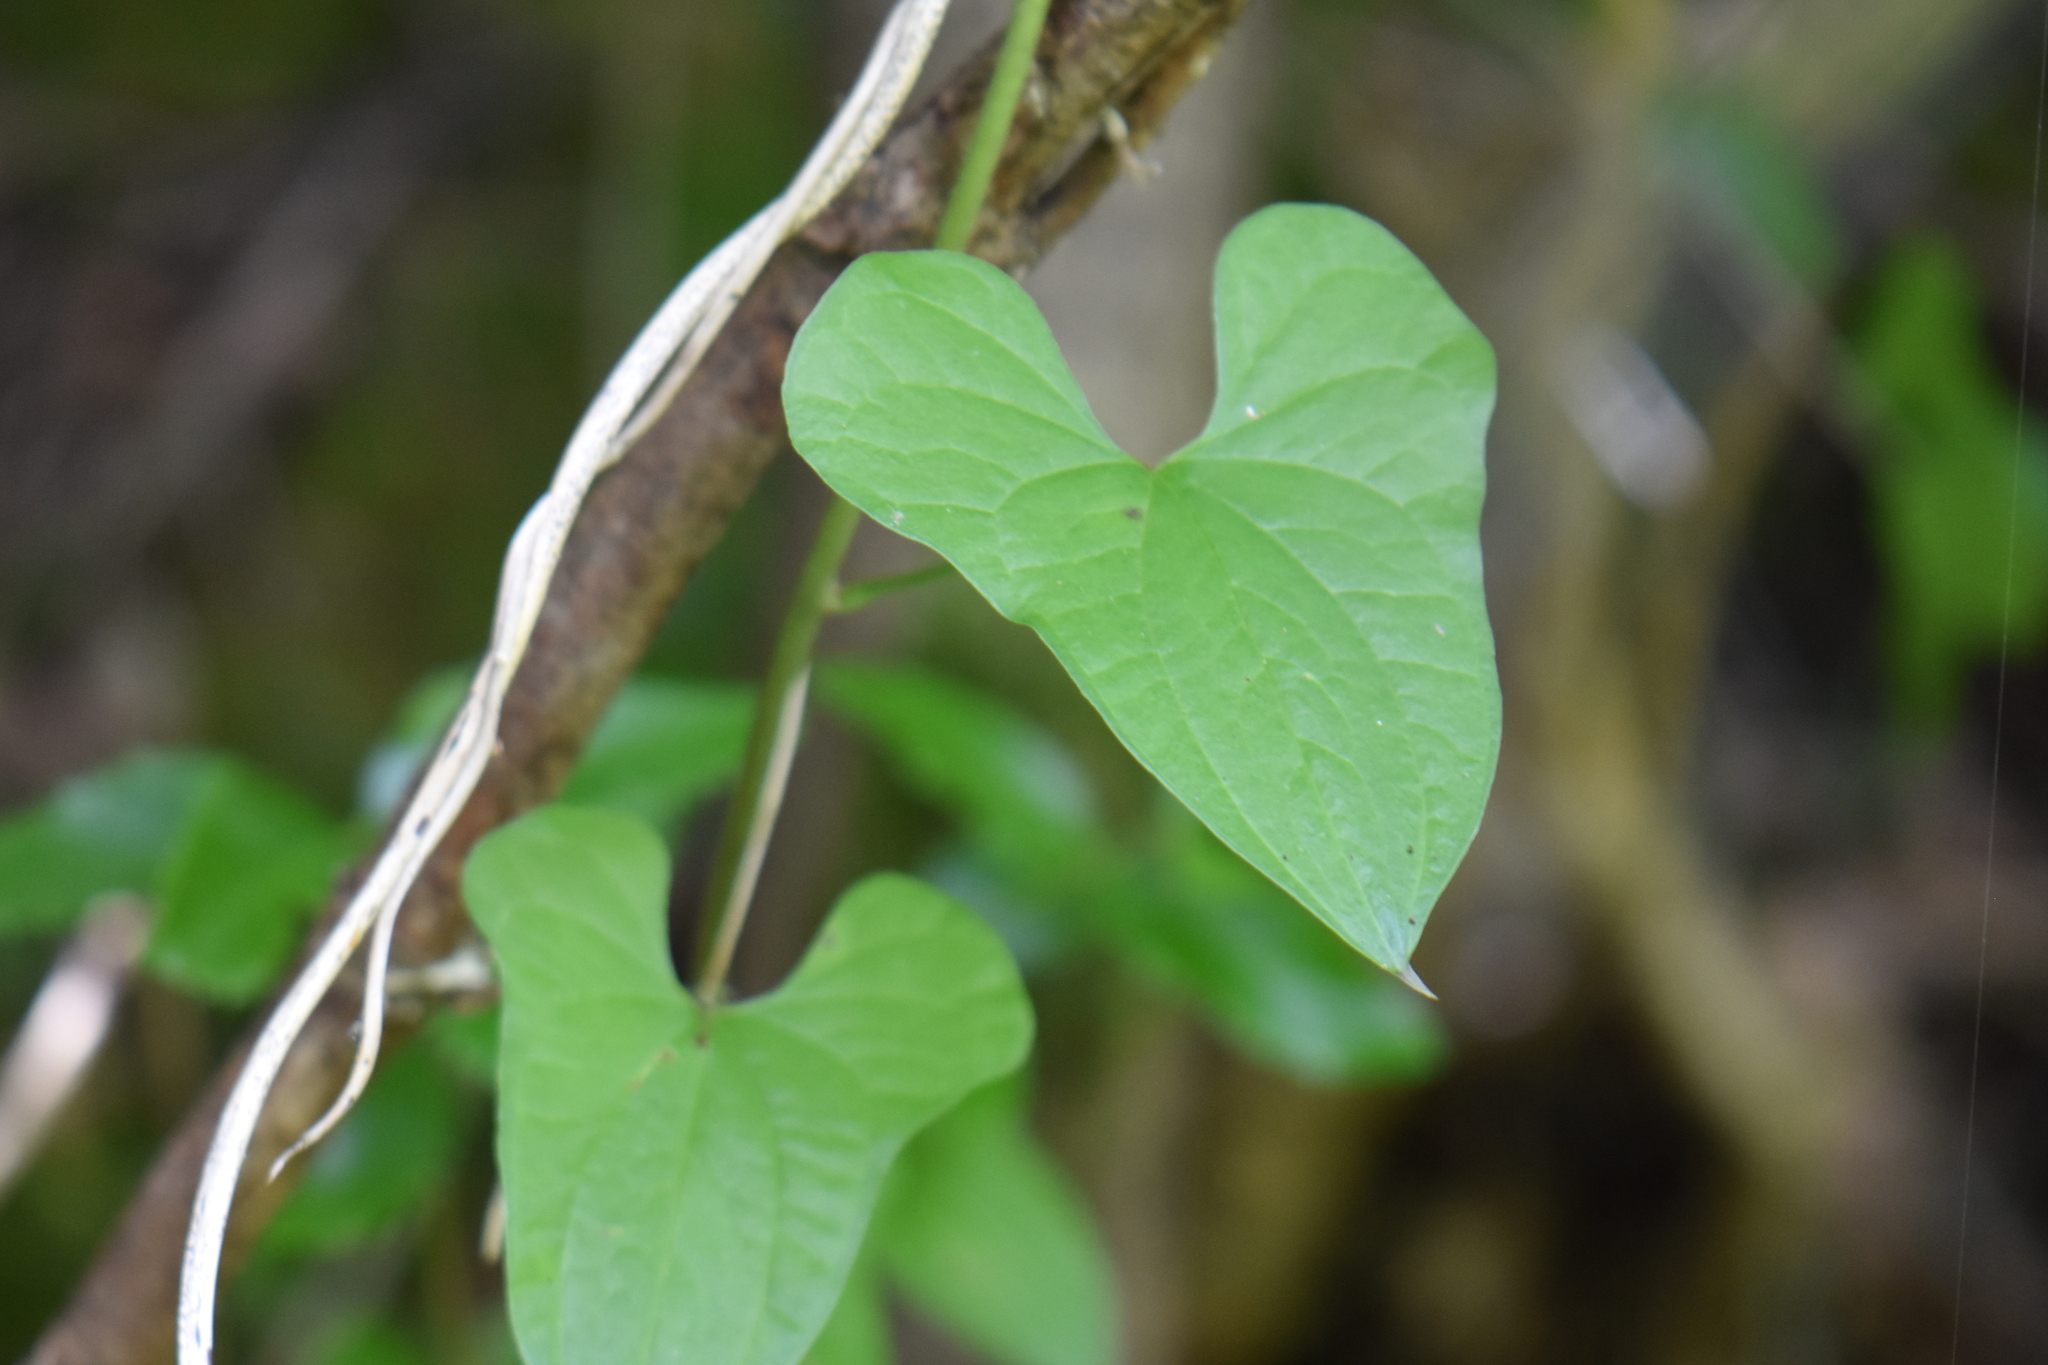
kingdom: Plantae
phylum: Tracheophyta
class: Liliopsida
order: Dioscoreales
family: Dioscoreaceae
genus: Dioscorea
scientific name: Dioscorea communis
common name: Black-bindweed
